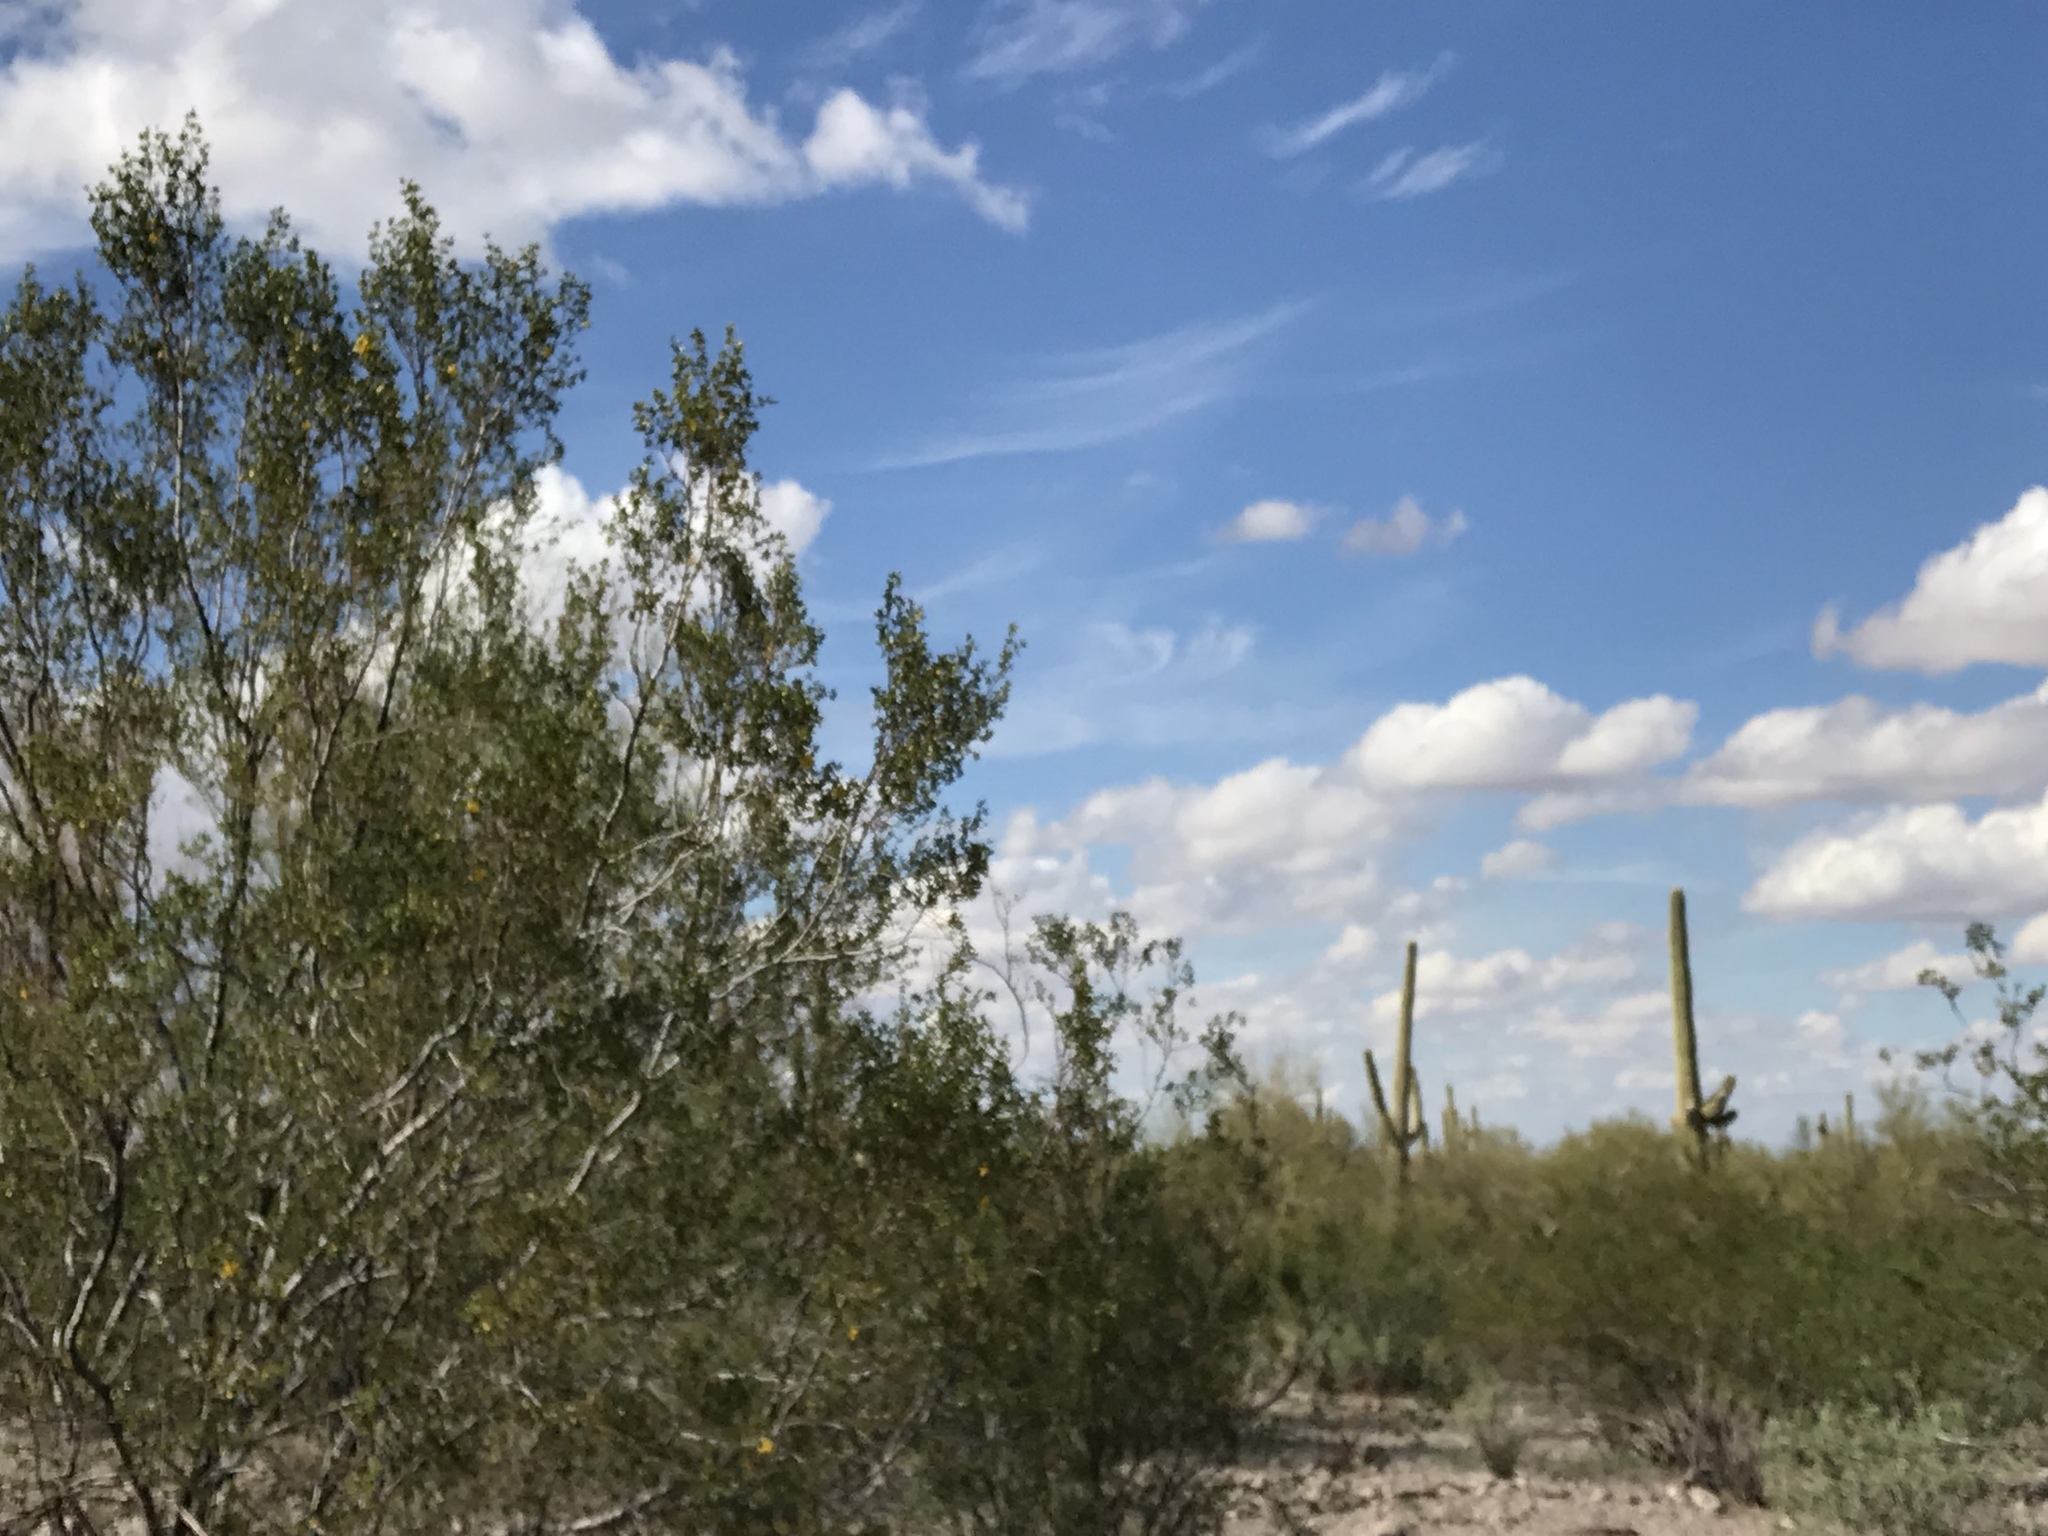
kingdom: Plantae
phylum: Tracheophyta
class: Magnoliopsida
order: Fabales
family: Fabaceae
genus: Olneya
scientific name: Olneya tesota
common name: Desert ironwood
